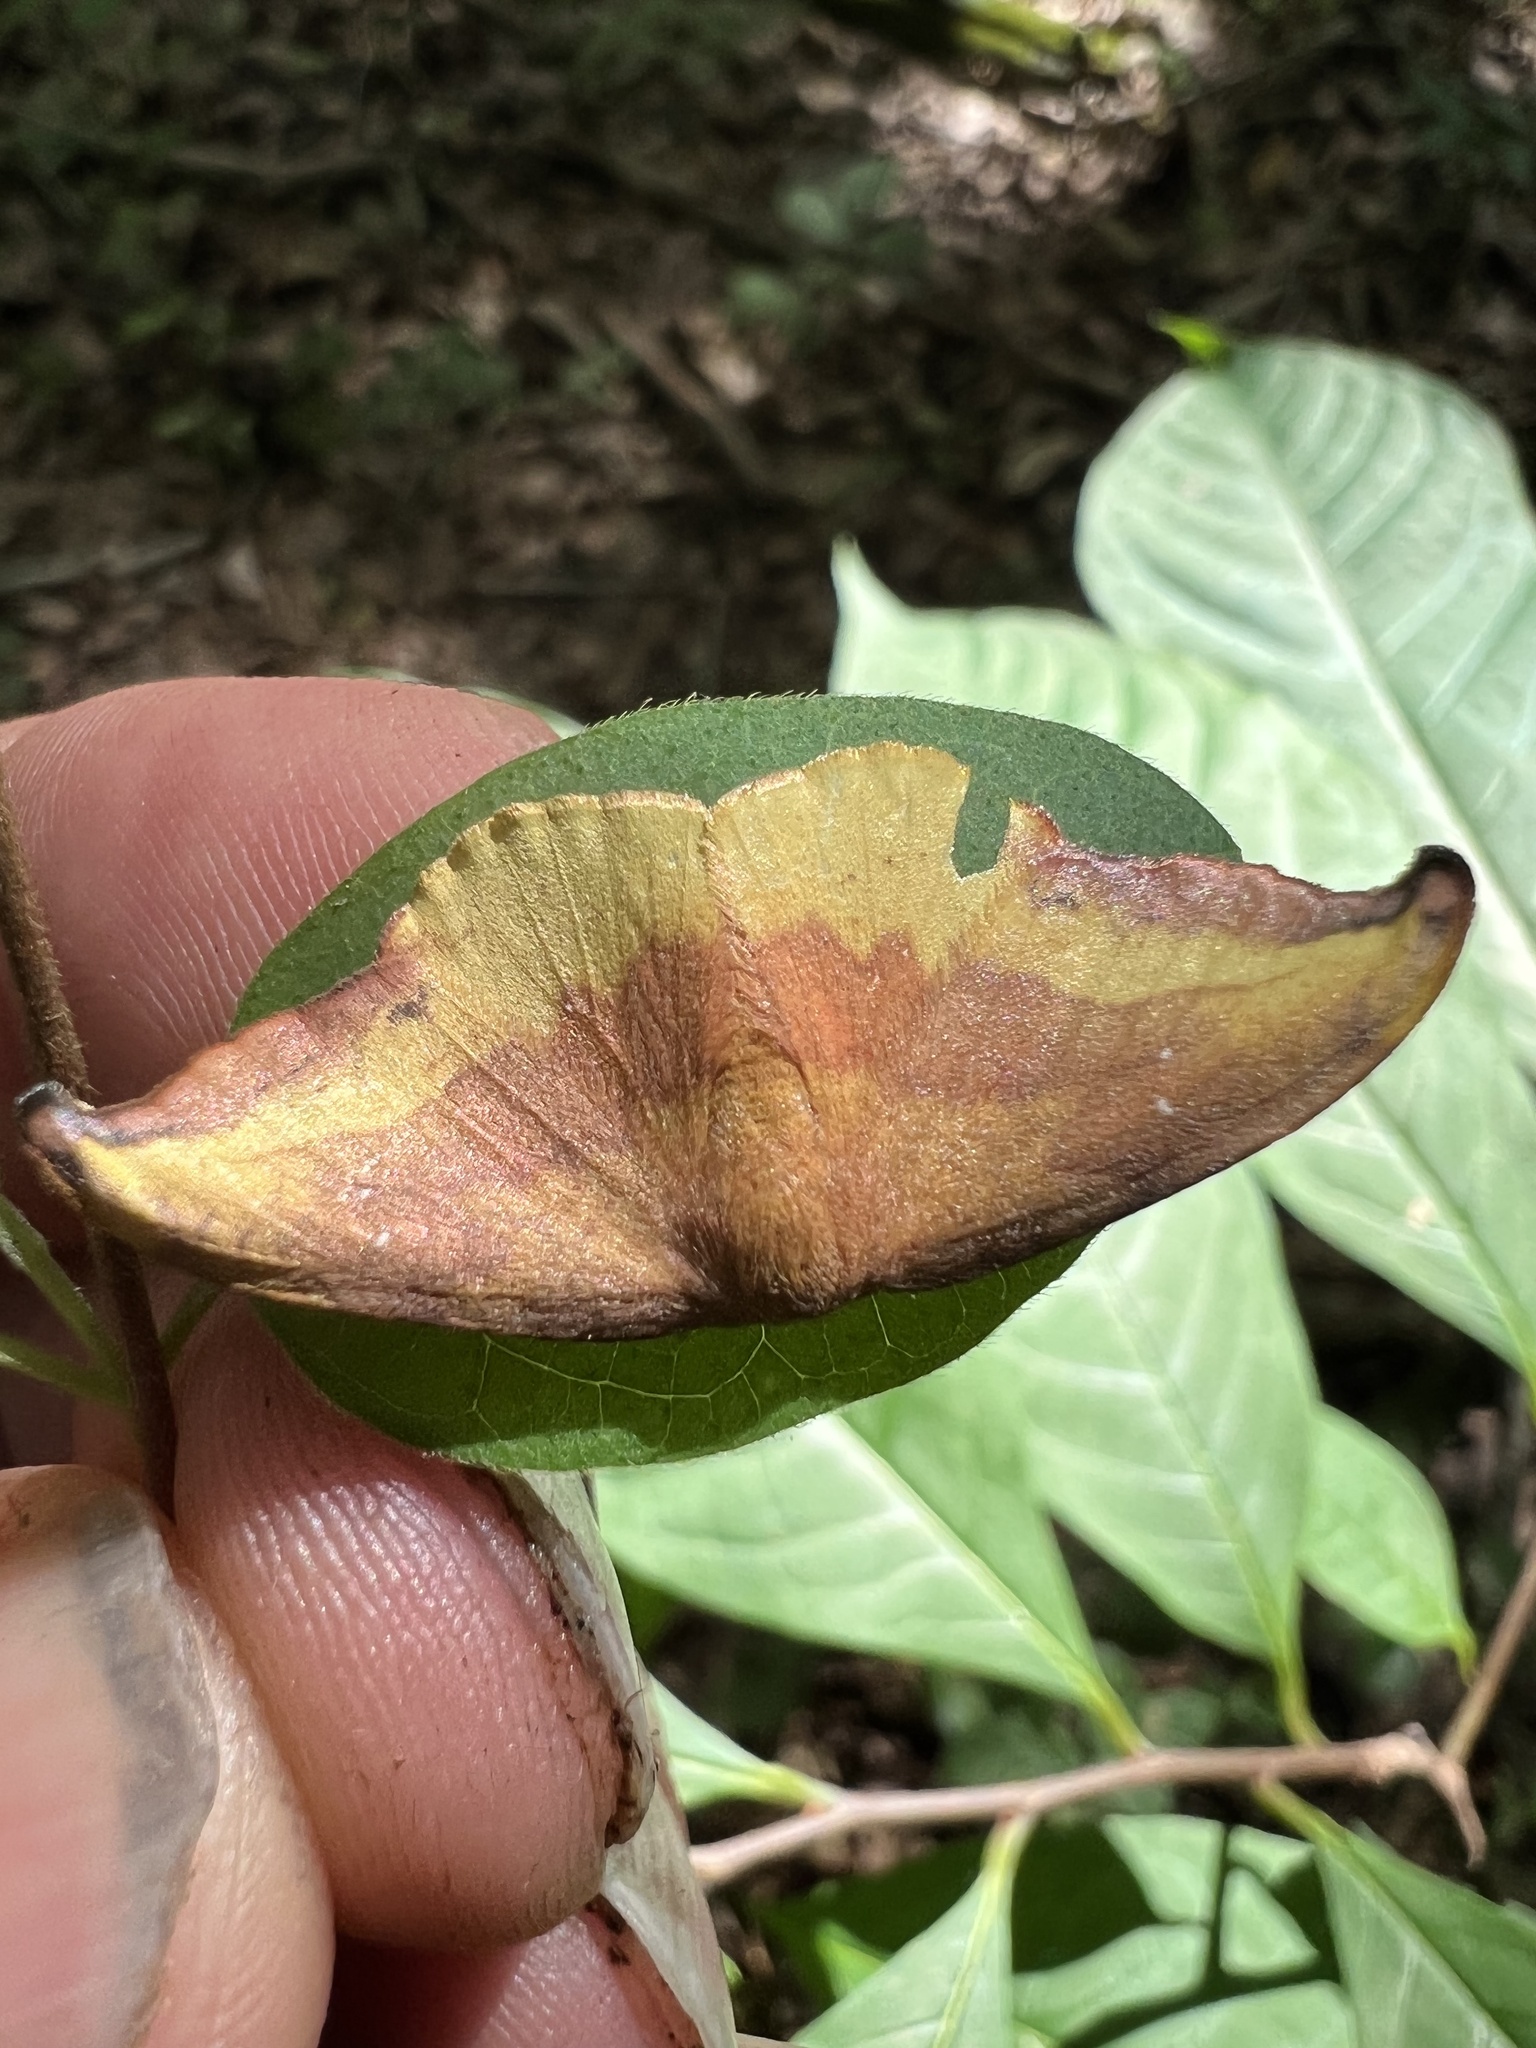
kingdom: Animalia
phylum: Arthropoda
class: Insecta
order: Lepidoptera
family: Drepanidae
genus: Oreta
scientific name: Oreta rosea
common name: Rose hooktip
